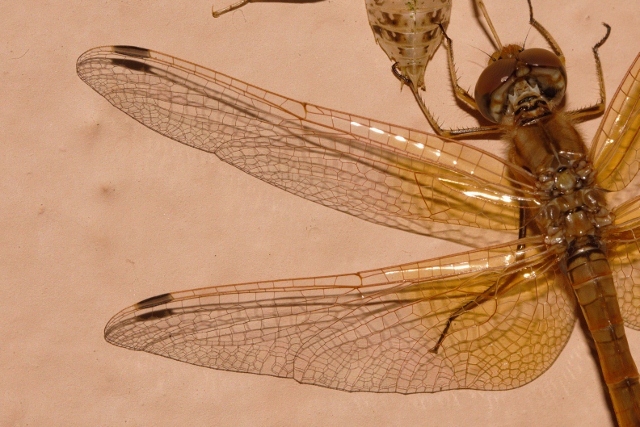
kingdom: Animalia
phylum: Arthropoda
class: Insecta
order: Odonata
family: Libellulidae
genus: Trithemis
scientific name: Trithemis kirbyi
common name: Kirby's dropwing
